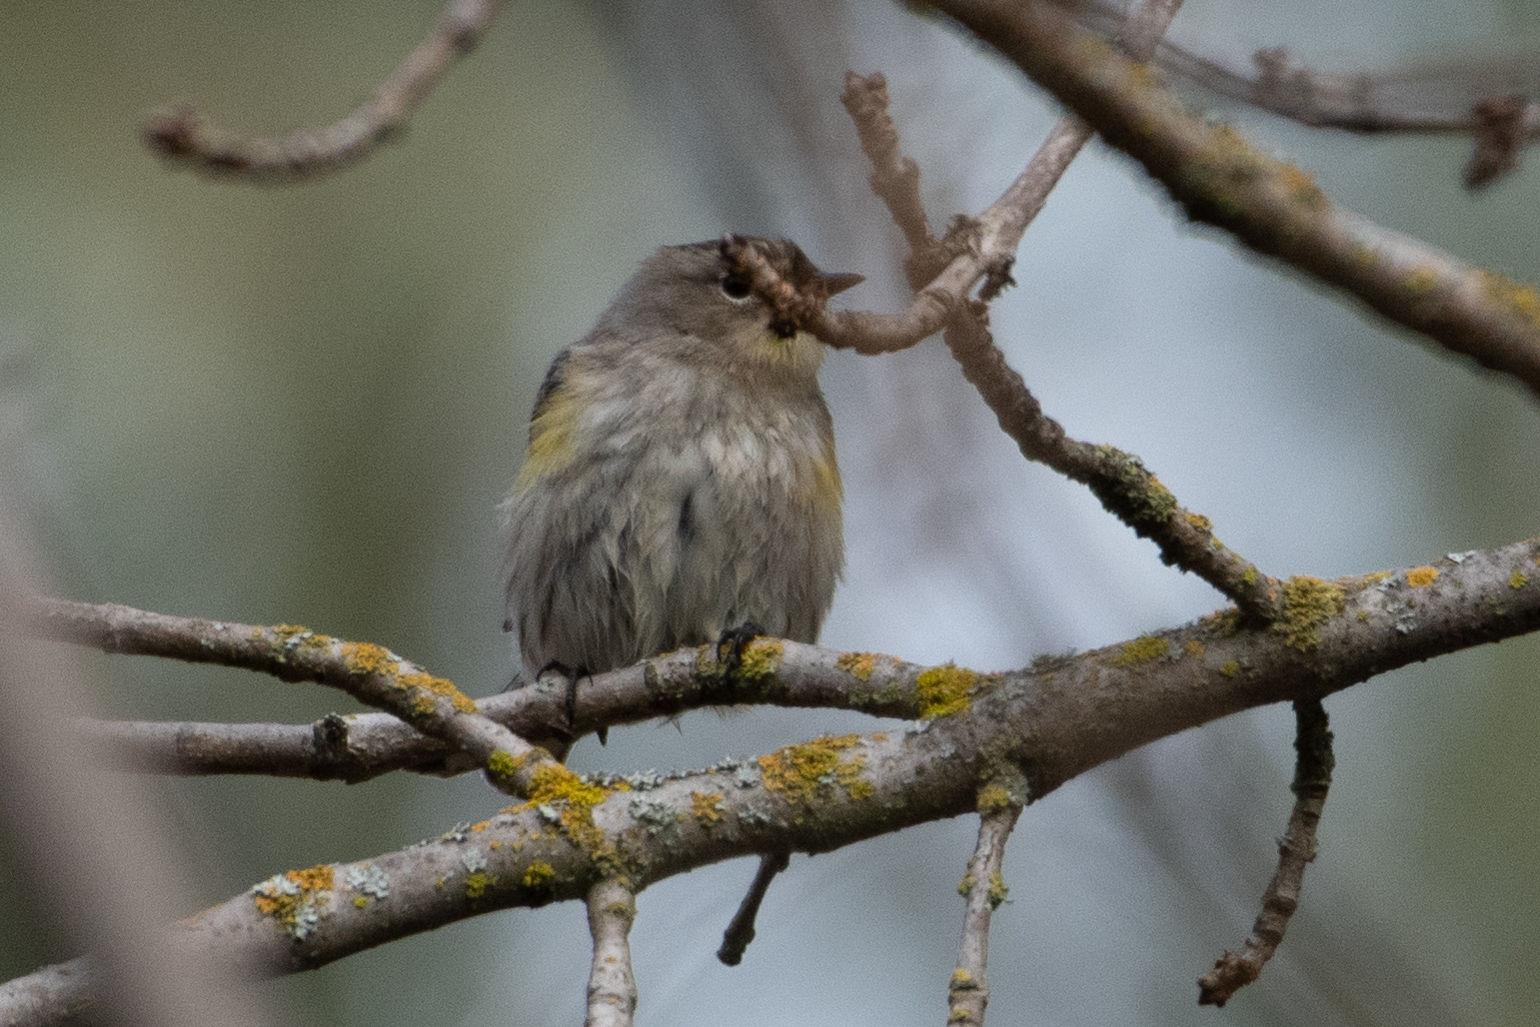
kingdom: Animalia
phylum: Chordata
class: Aves
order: Passeriformes
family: Parulidae
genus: Setophaga
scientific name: Setophaga coronata
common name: Myrtle warbler
